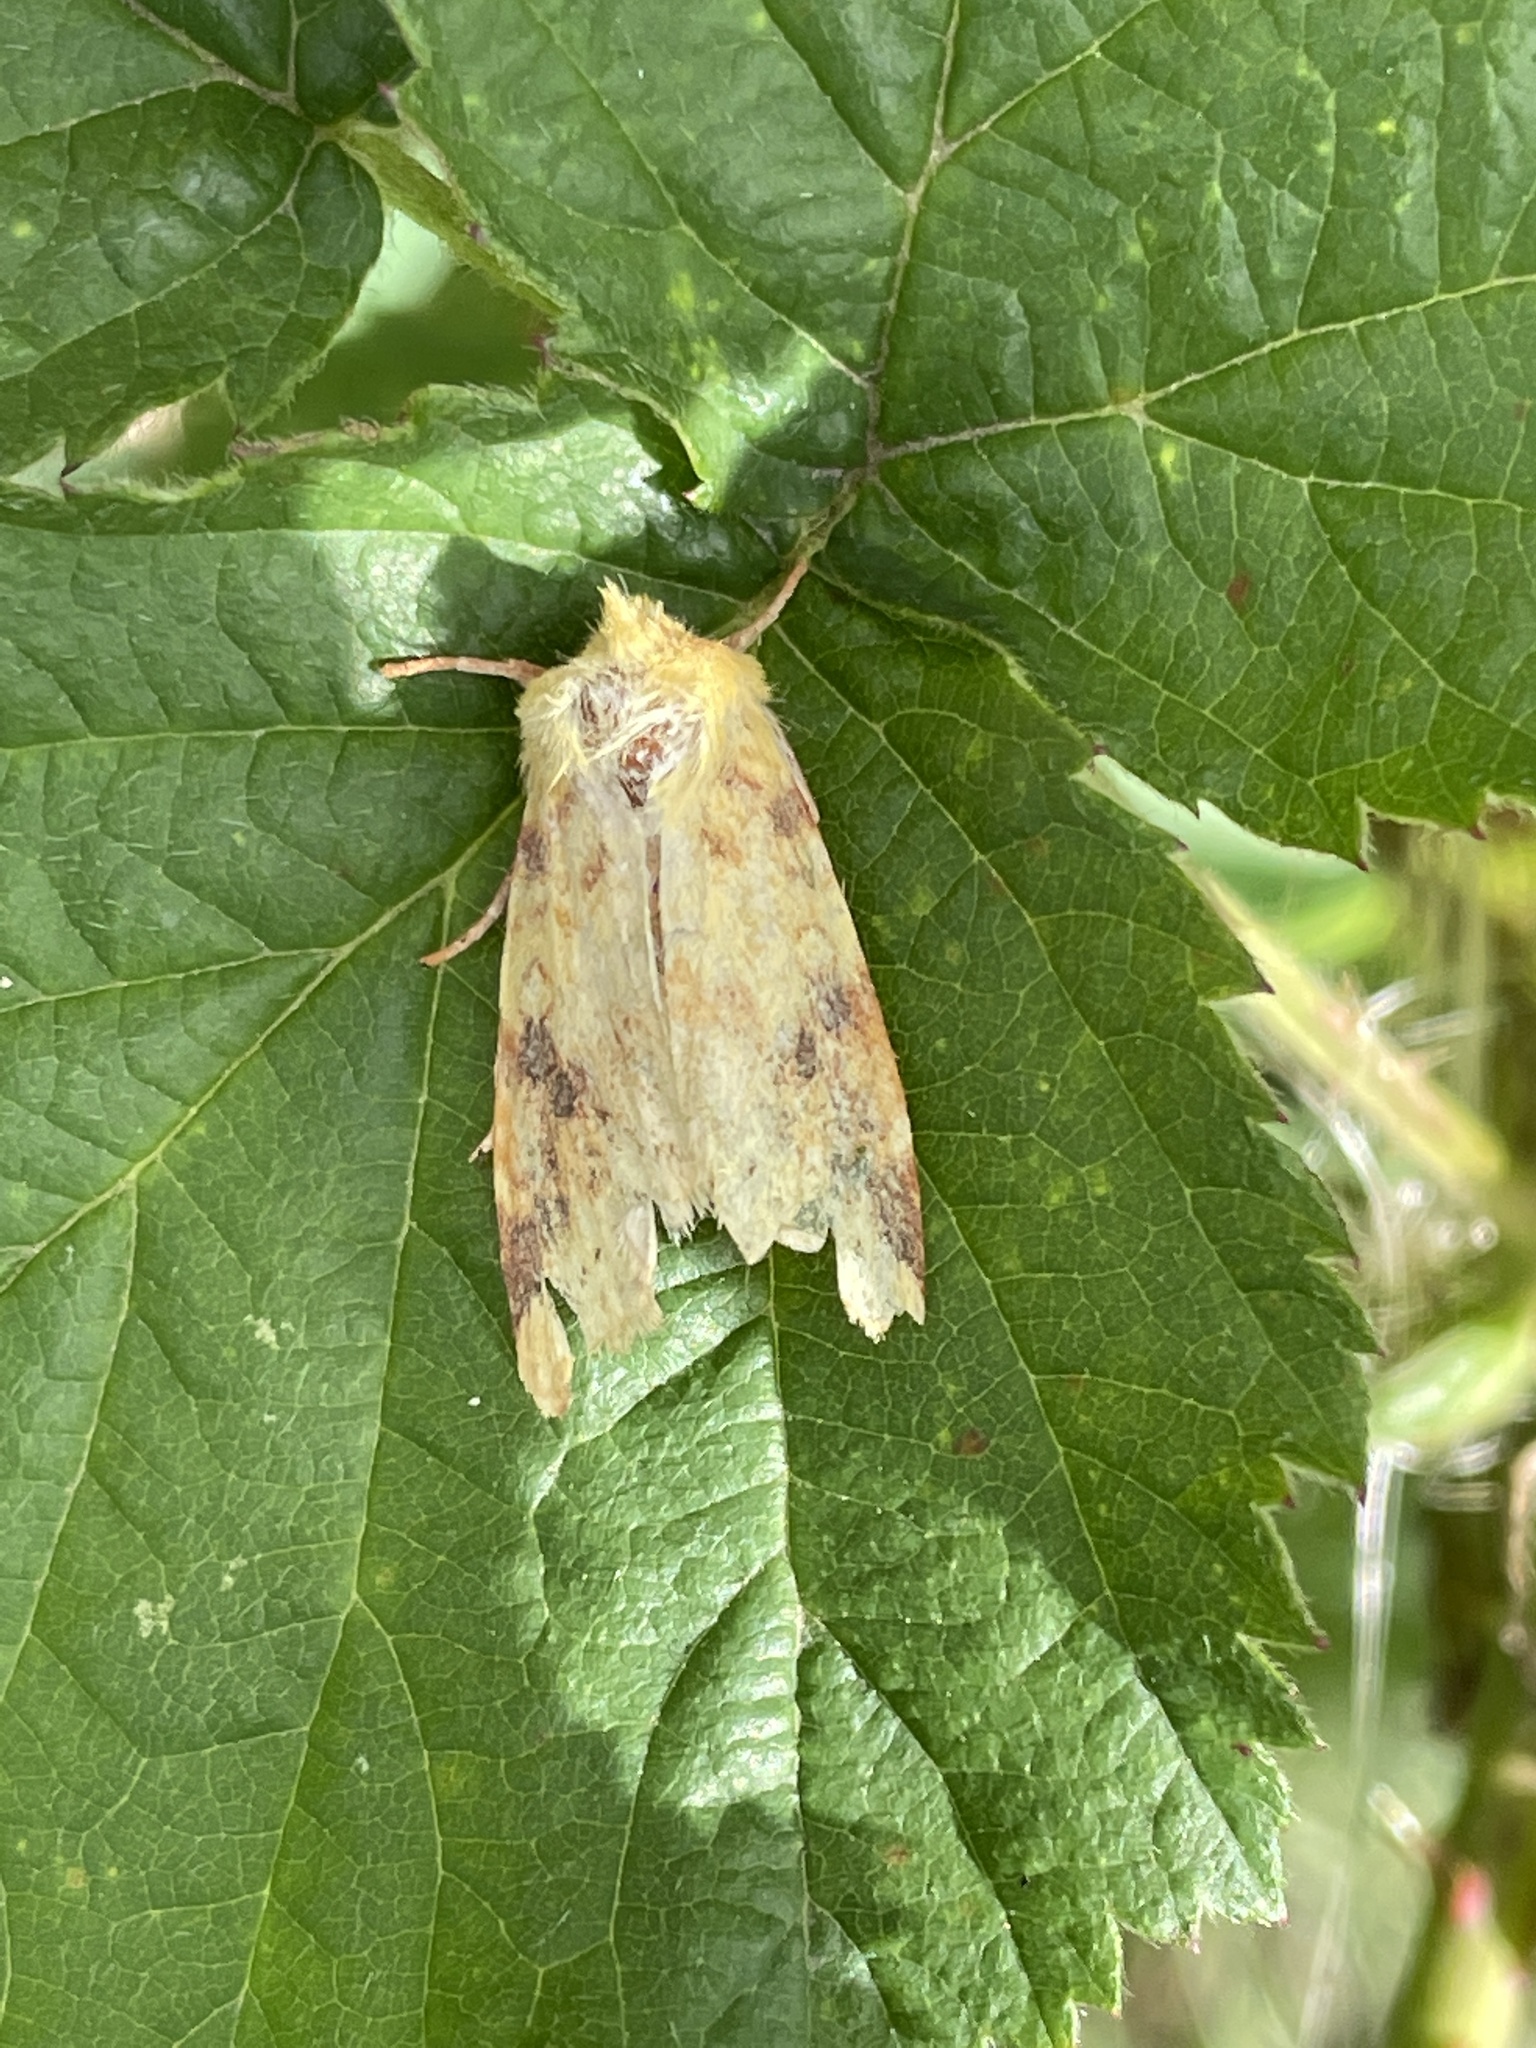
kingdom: Animalia
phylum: Arthropoda
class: Insecta
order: Lepidoptera
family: Noctuidae
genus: Xanthia
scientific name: Xanthia icteritia
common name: The sallow
